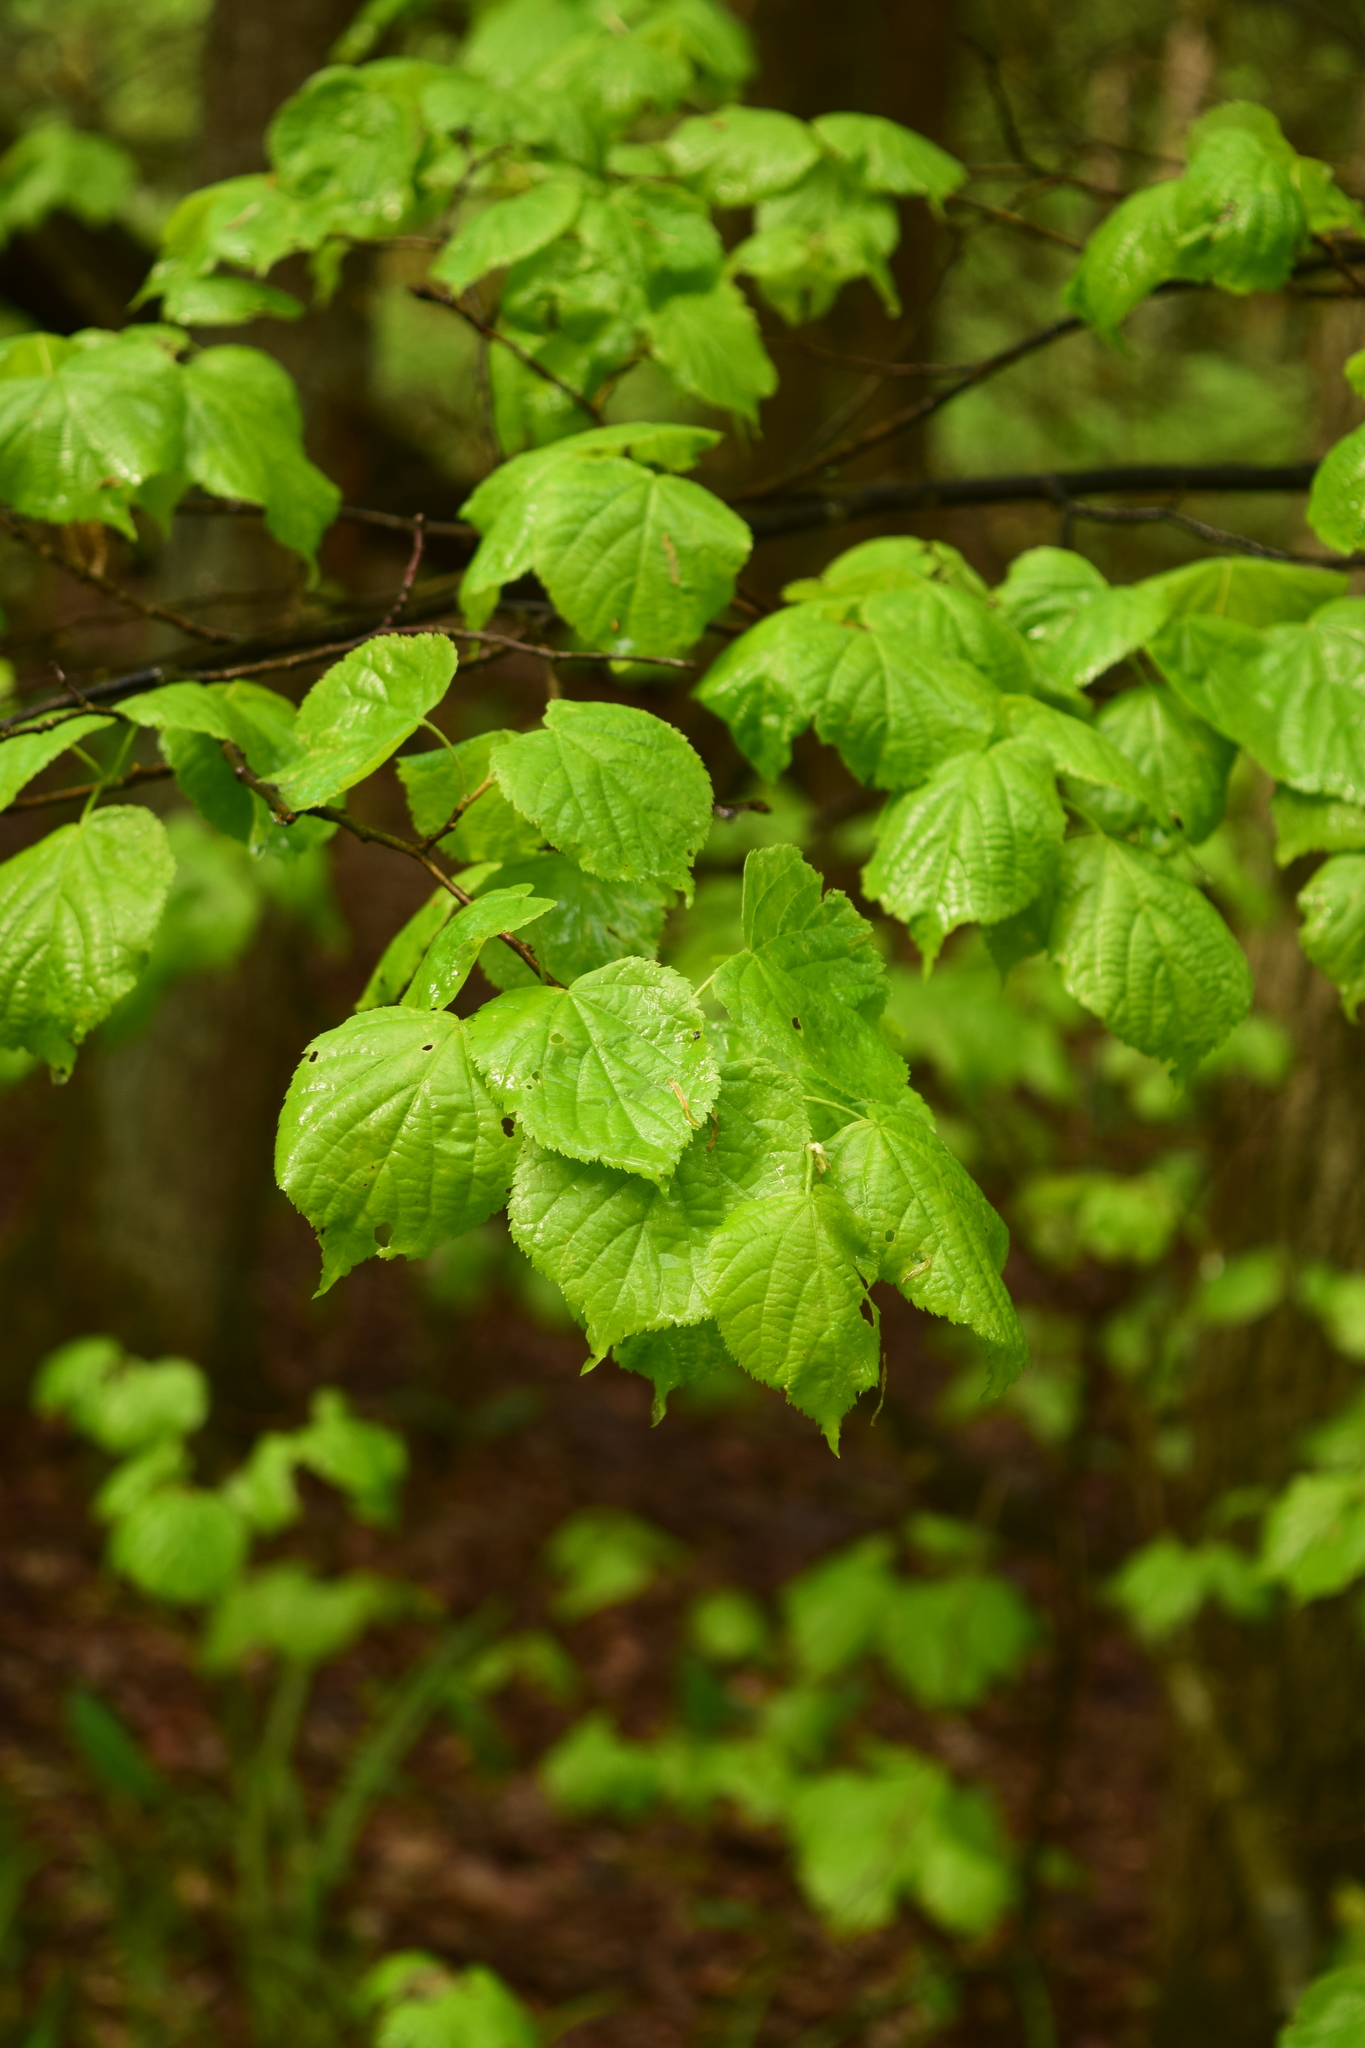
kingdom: Plantae
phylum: Tracheophyta
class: Magnoliopsida
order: Malvales
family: Malvaceae
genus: Tilia
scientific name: Tilia cordata
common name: Small-leaved lime
